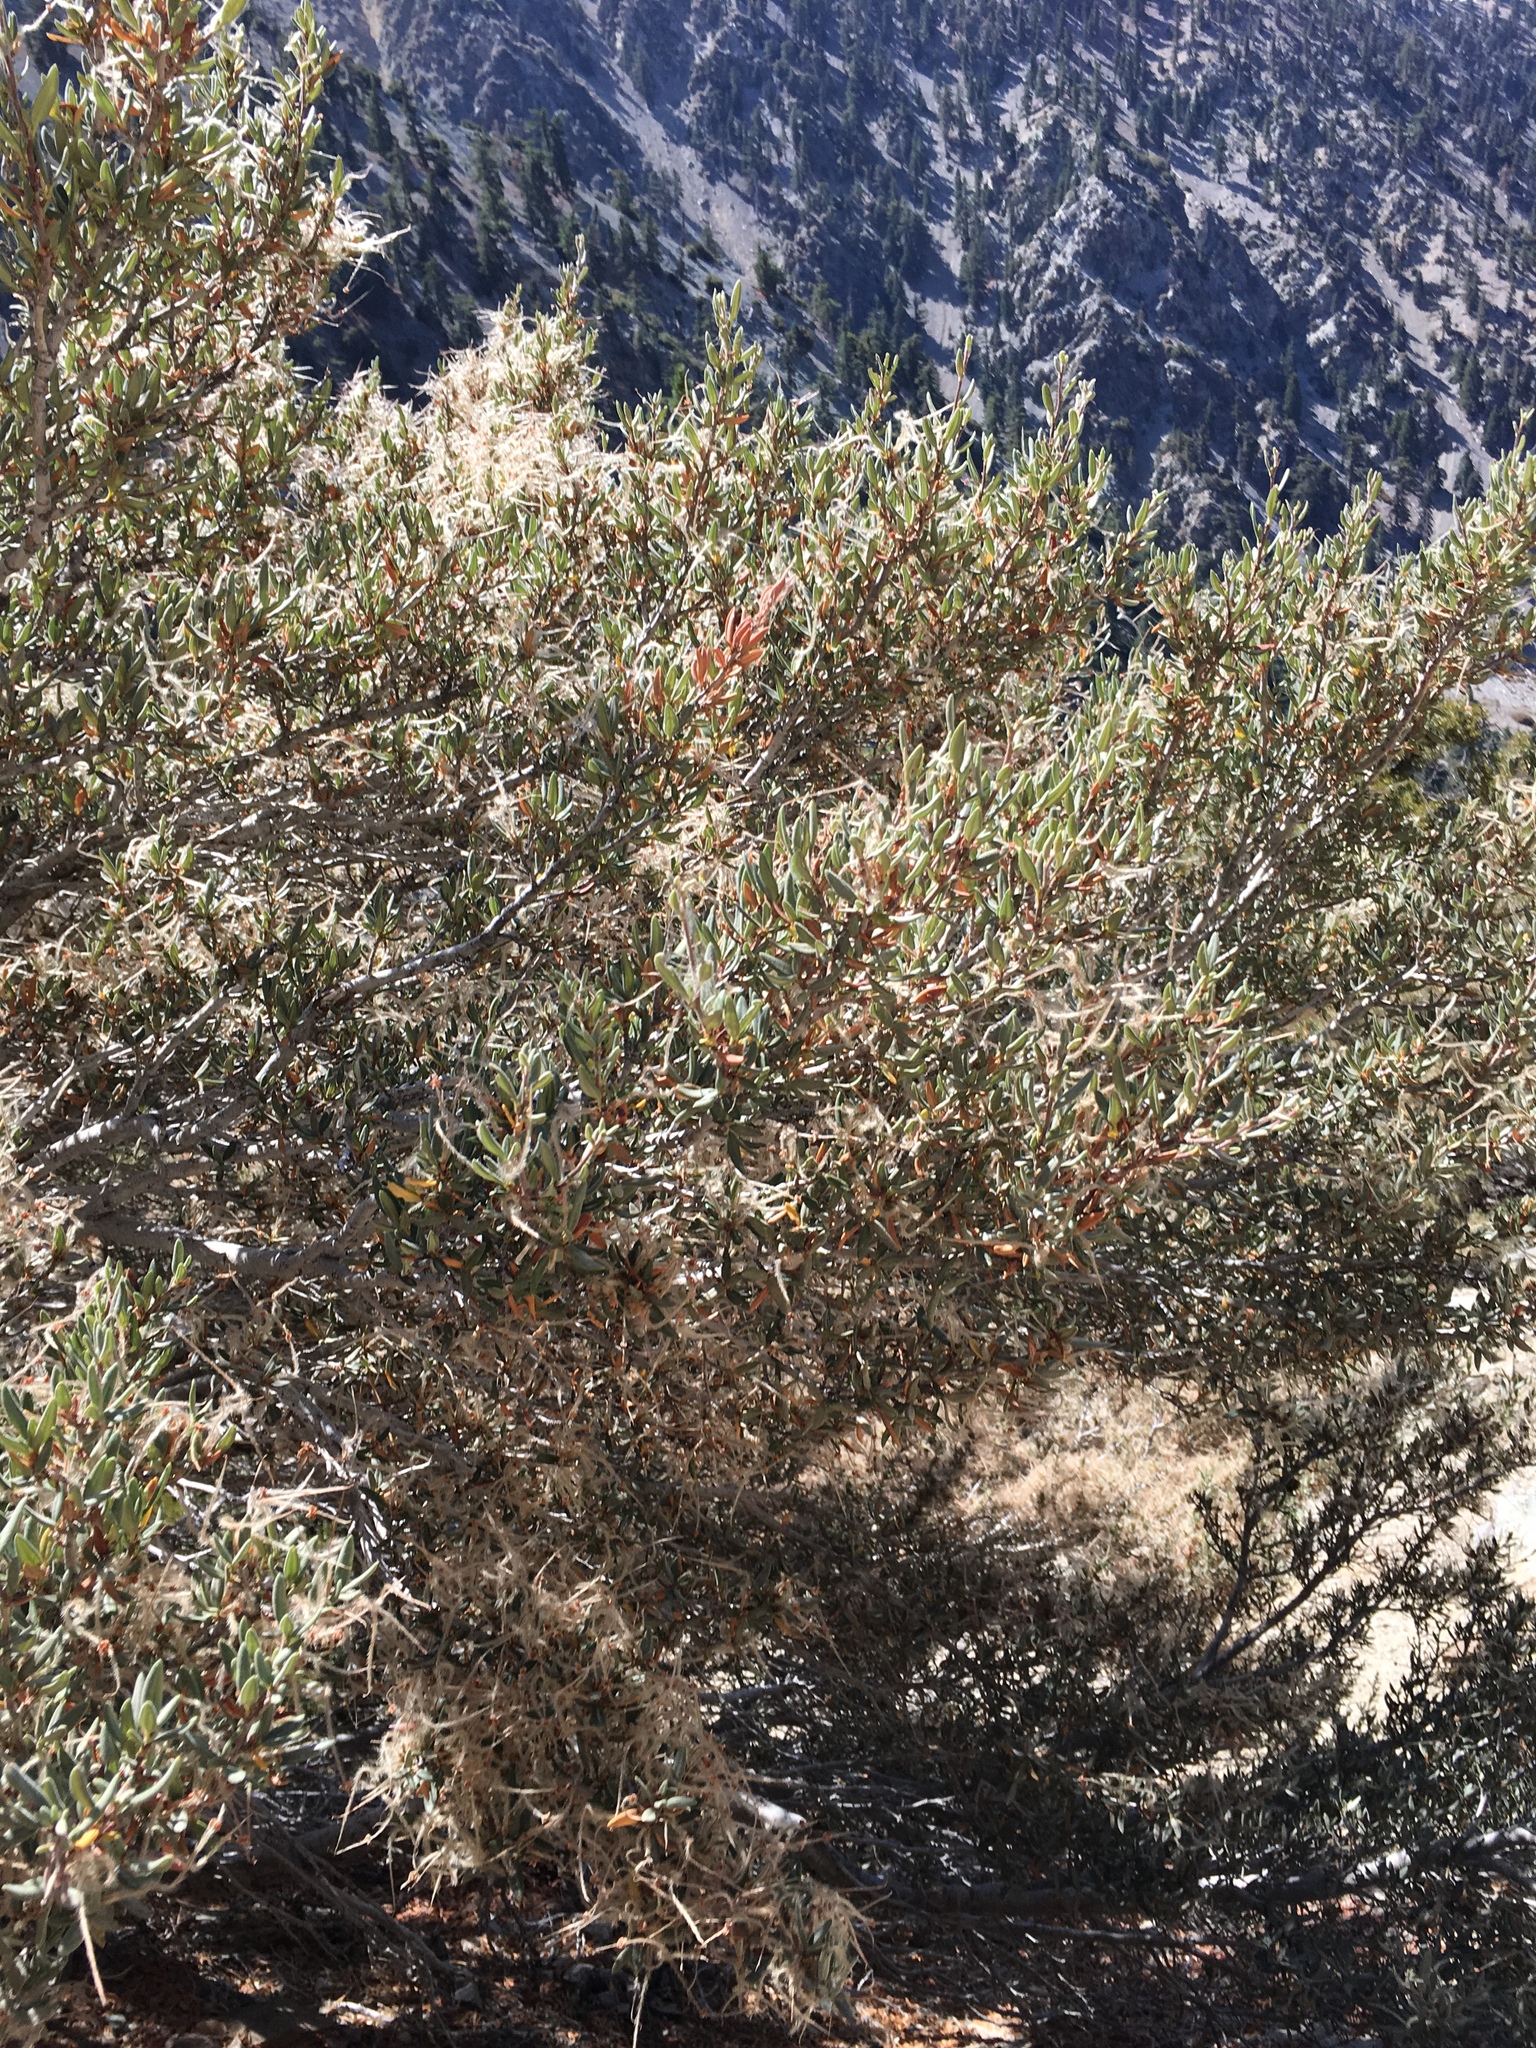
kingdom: Plantae
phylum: Tracheophyta
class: Magnoliopsida
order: Rosales
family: Rosaceae
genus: Cercocarpus
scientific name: Cercocarpus ledifolius
